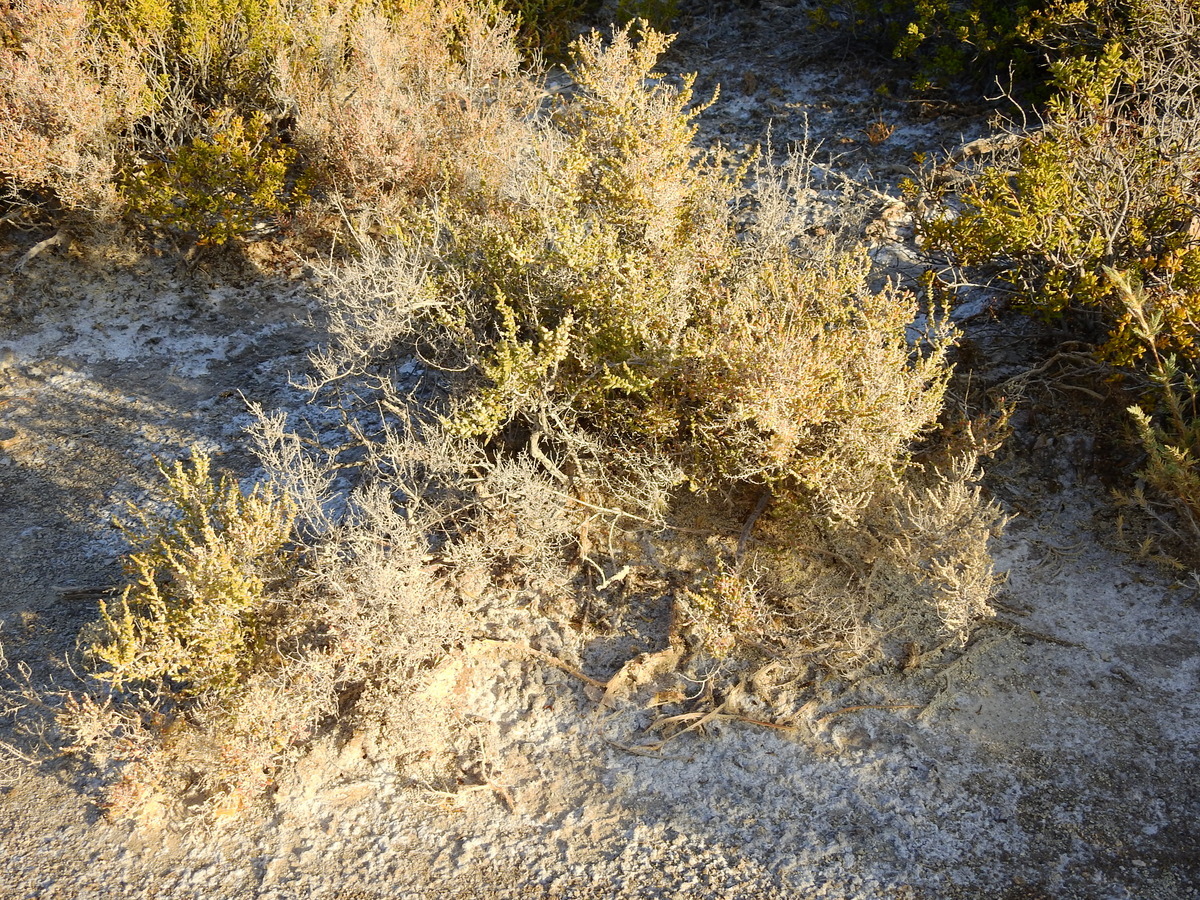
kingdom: Plantae
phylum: Tracheophyta
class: Magnoliopsida
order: Caryophyllales
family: Amaranthaceae
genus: Heterostachys
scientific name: Heterostachys ritteriana
